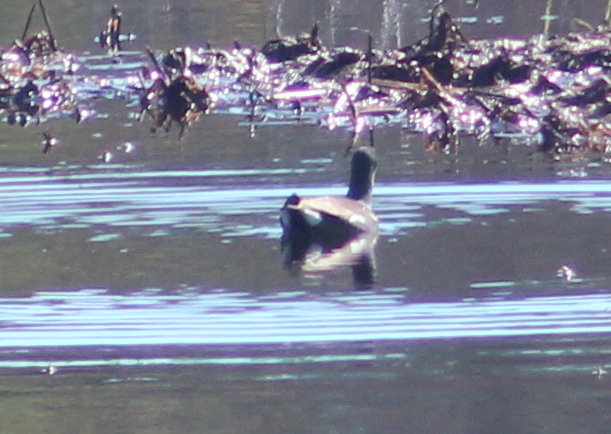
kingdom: Animalia
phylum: Chordata
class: Aves
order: Gruiformes
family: Rallidae
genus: Gallinula
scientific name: Gallinula chloropus
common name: Common moorhen
